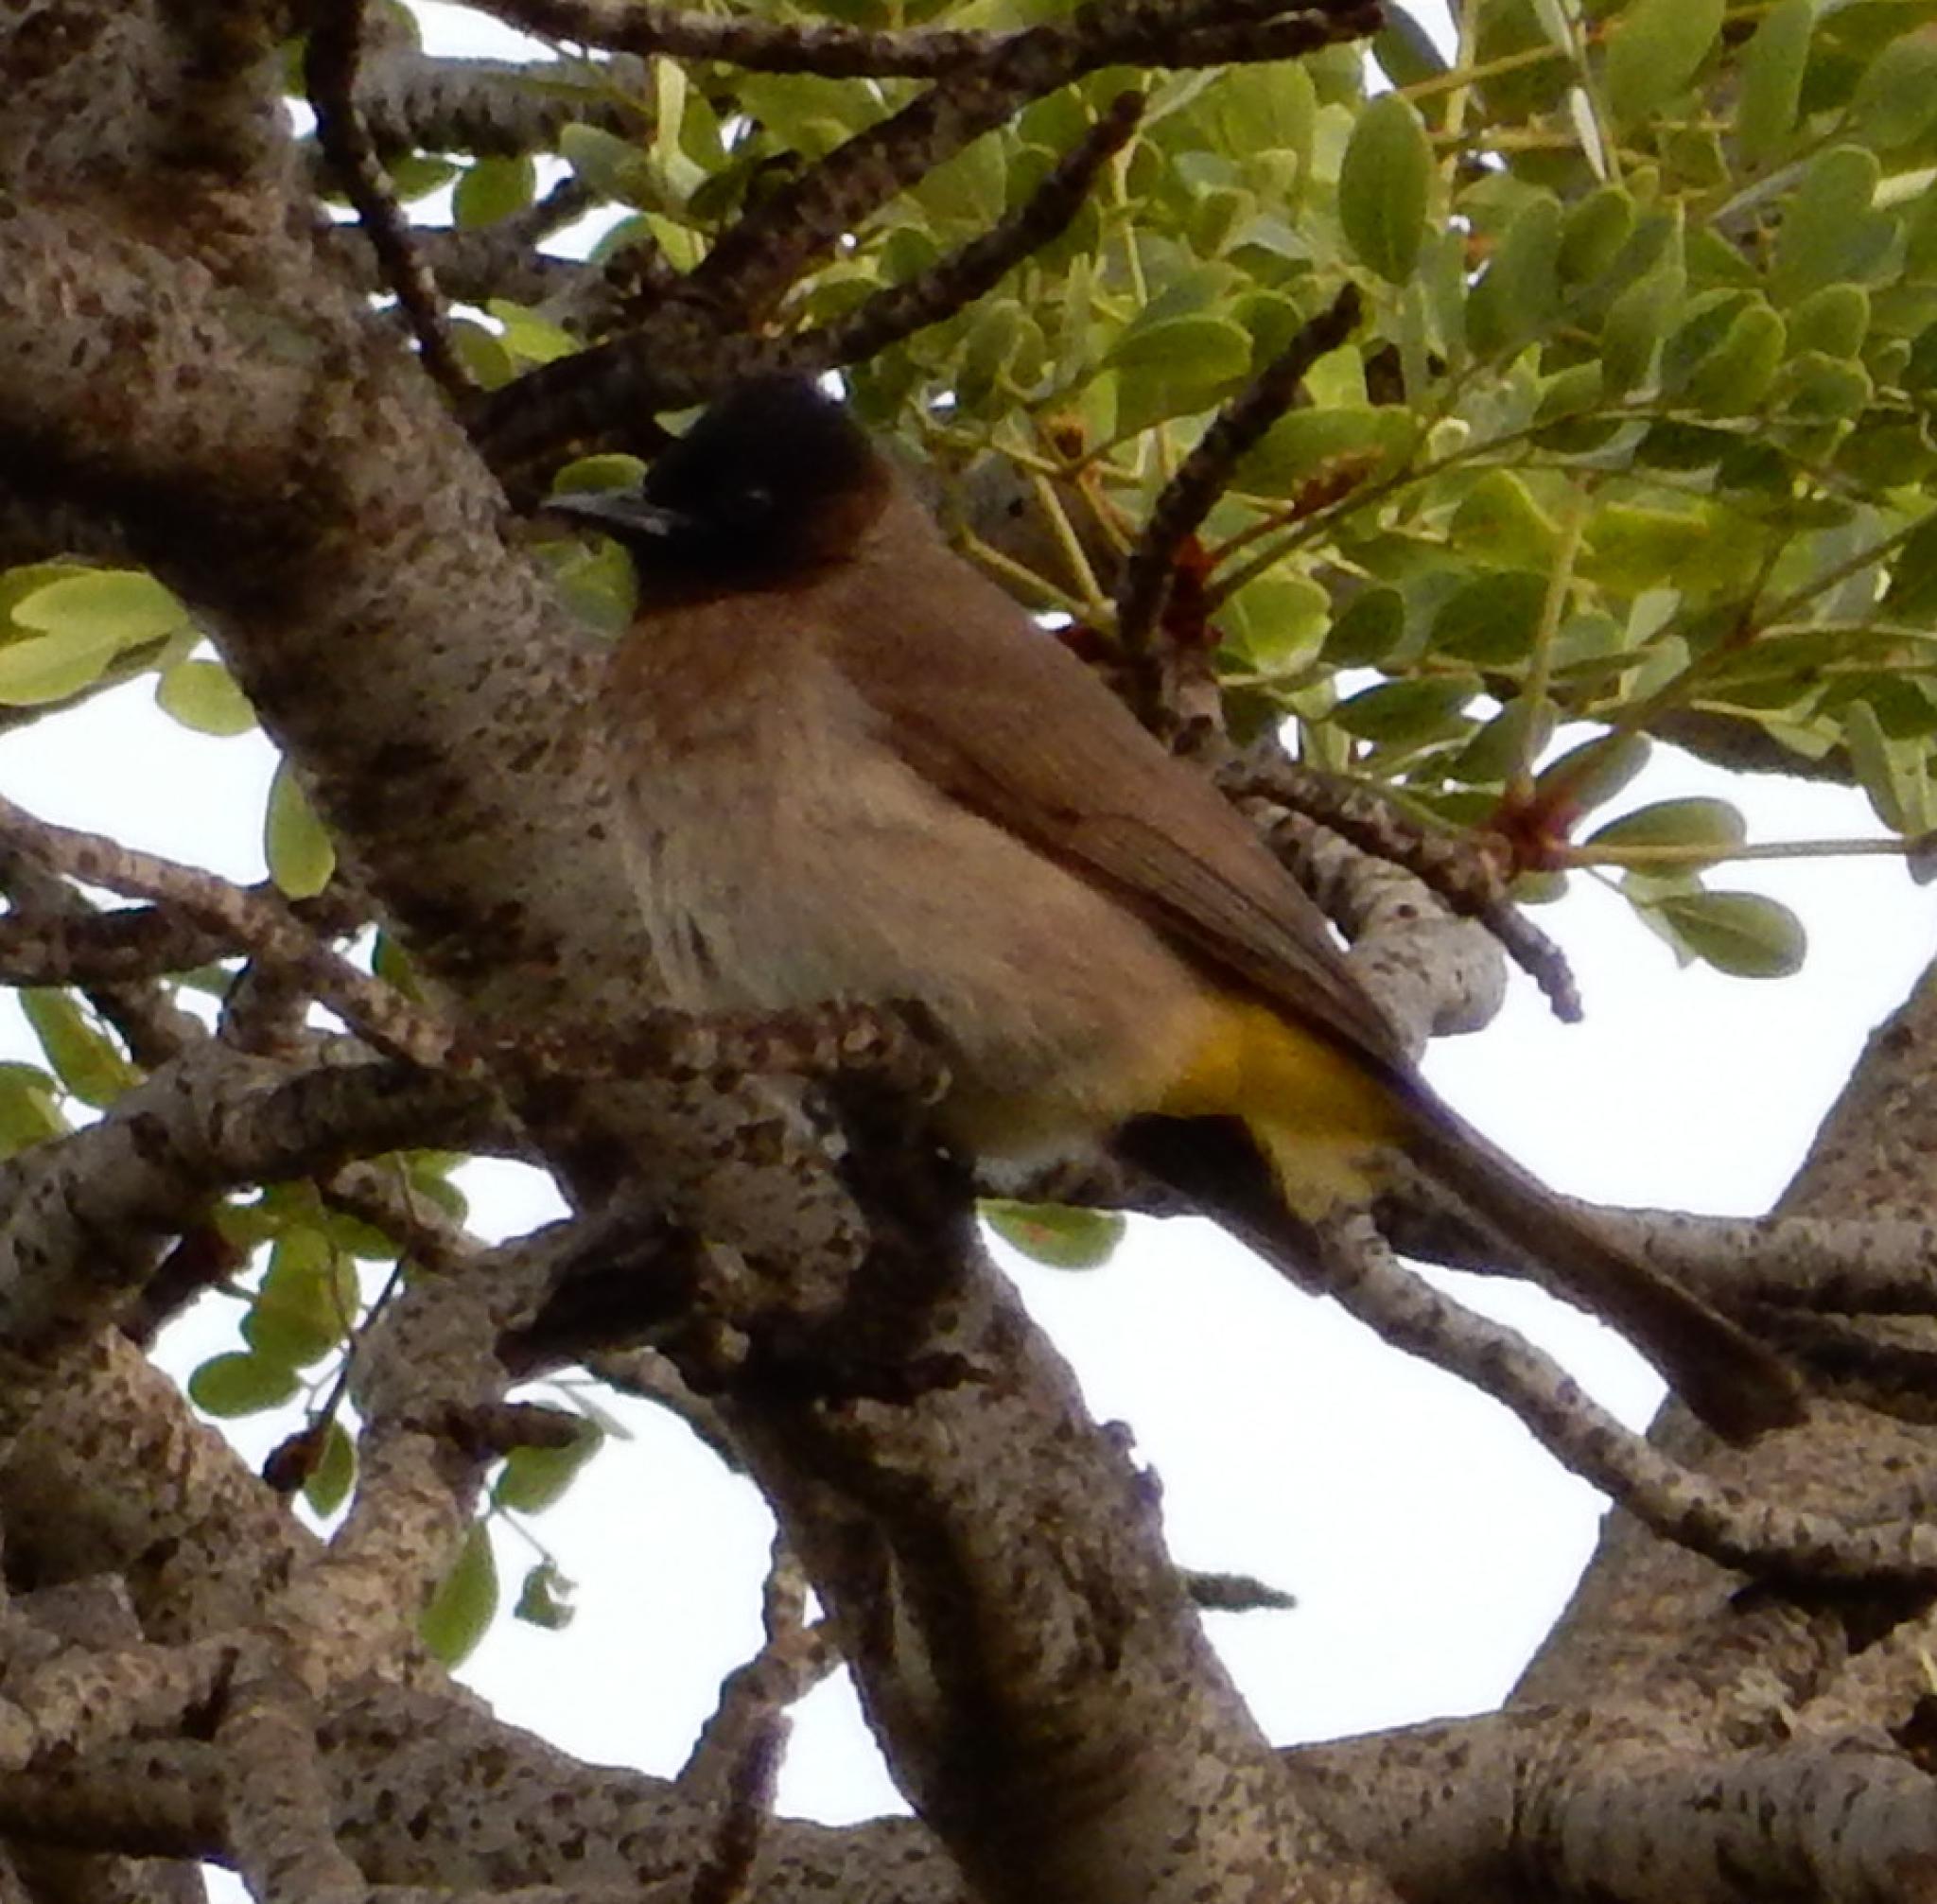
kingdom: Animalia
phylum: Chordata
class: Aves
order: Passeriformes
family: Pycnonotidae
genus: Pycnonotus
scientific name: Pycnonotus barbatus
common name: Common bulbul
